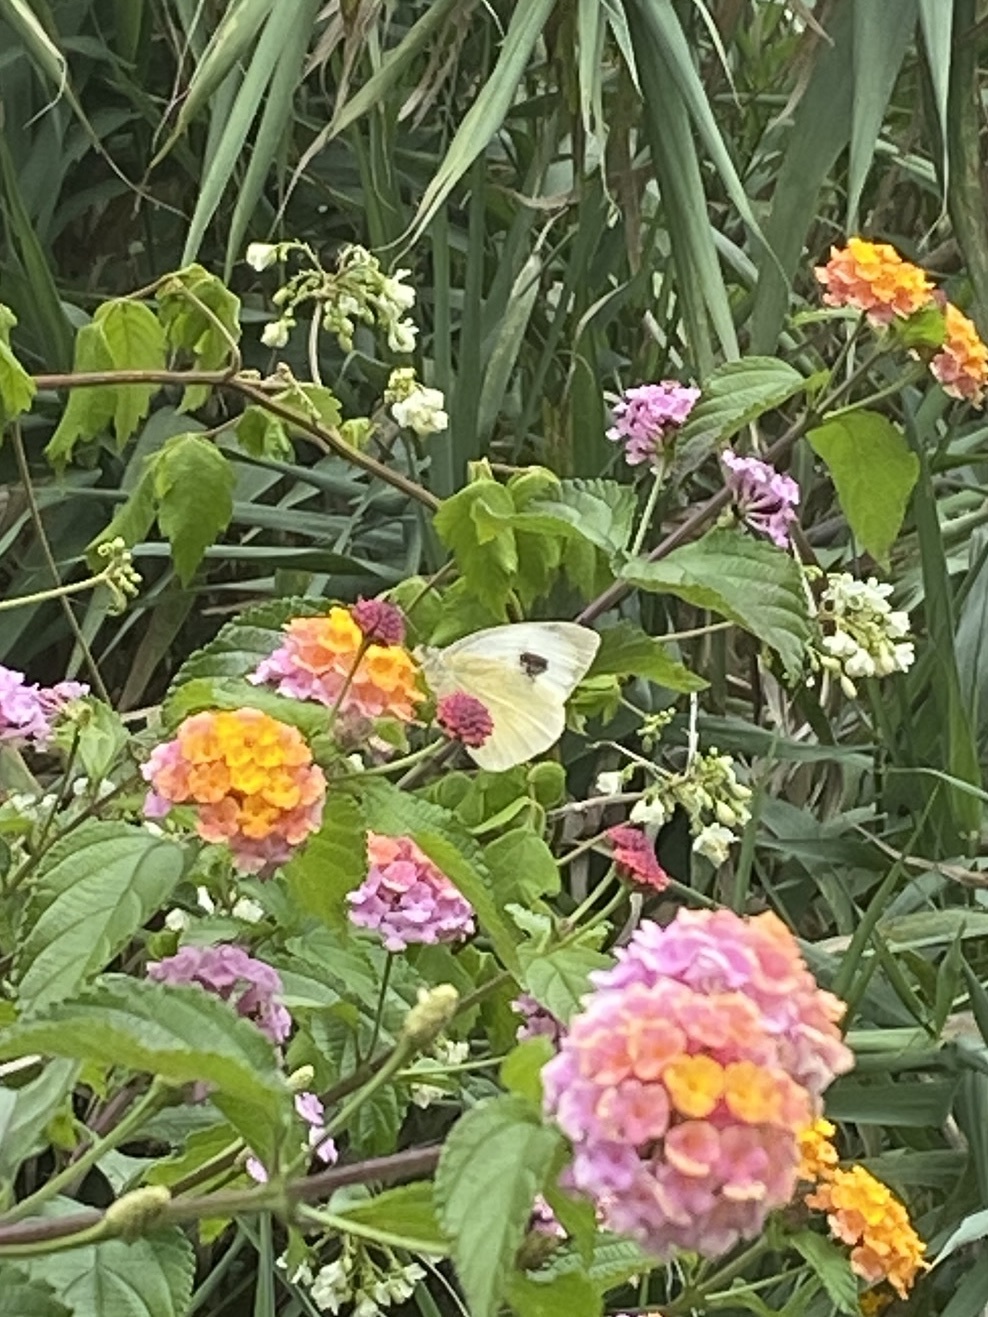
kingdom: Animalia
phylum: Arthropoda
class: Insecta
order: Lepidoptera
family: Pieridae
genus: Pieris
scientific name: Pieris cheiranthi
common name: Canary islands large white
